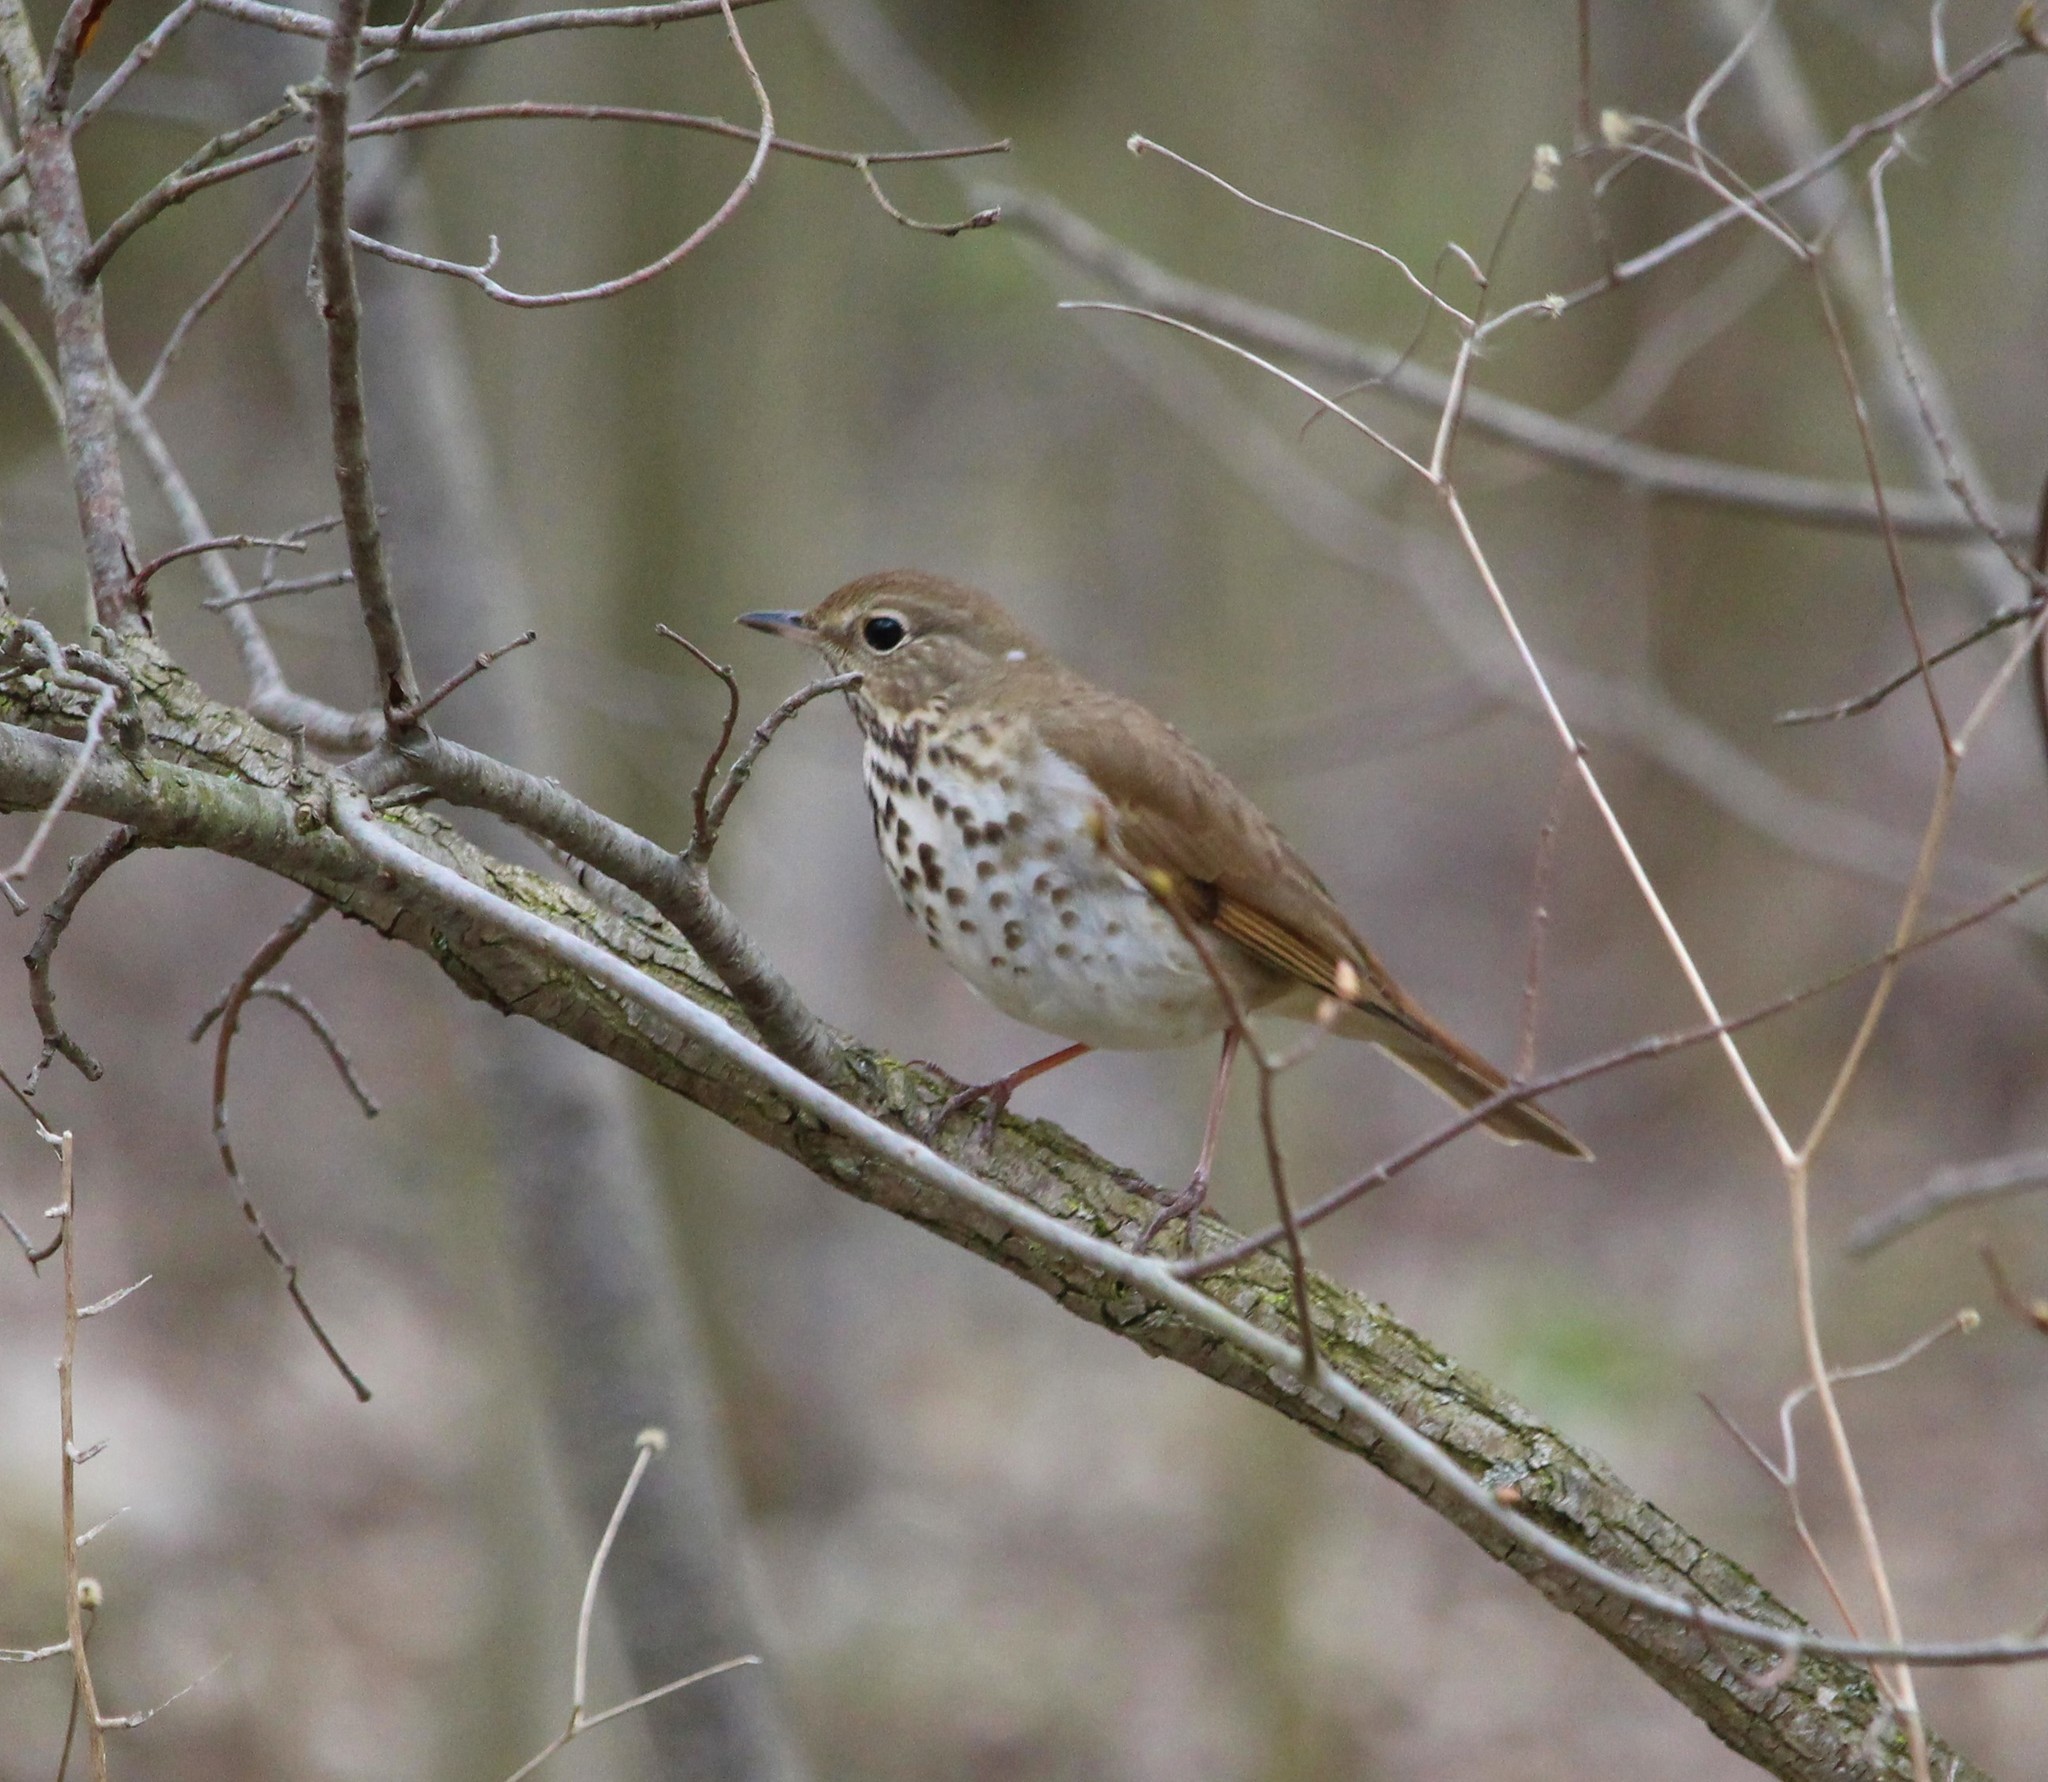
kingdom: Animalia
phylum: Chordata
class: Aves
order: Passeriformes
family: Turdidae
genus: Catharus
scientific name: Catharus guttatus
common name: Hermit thrush
